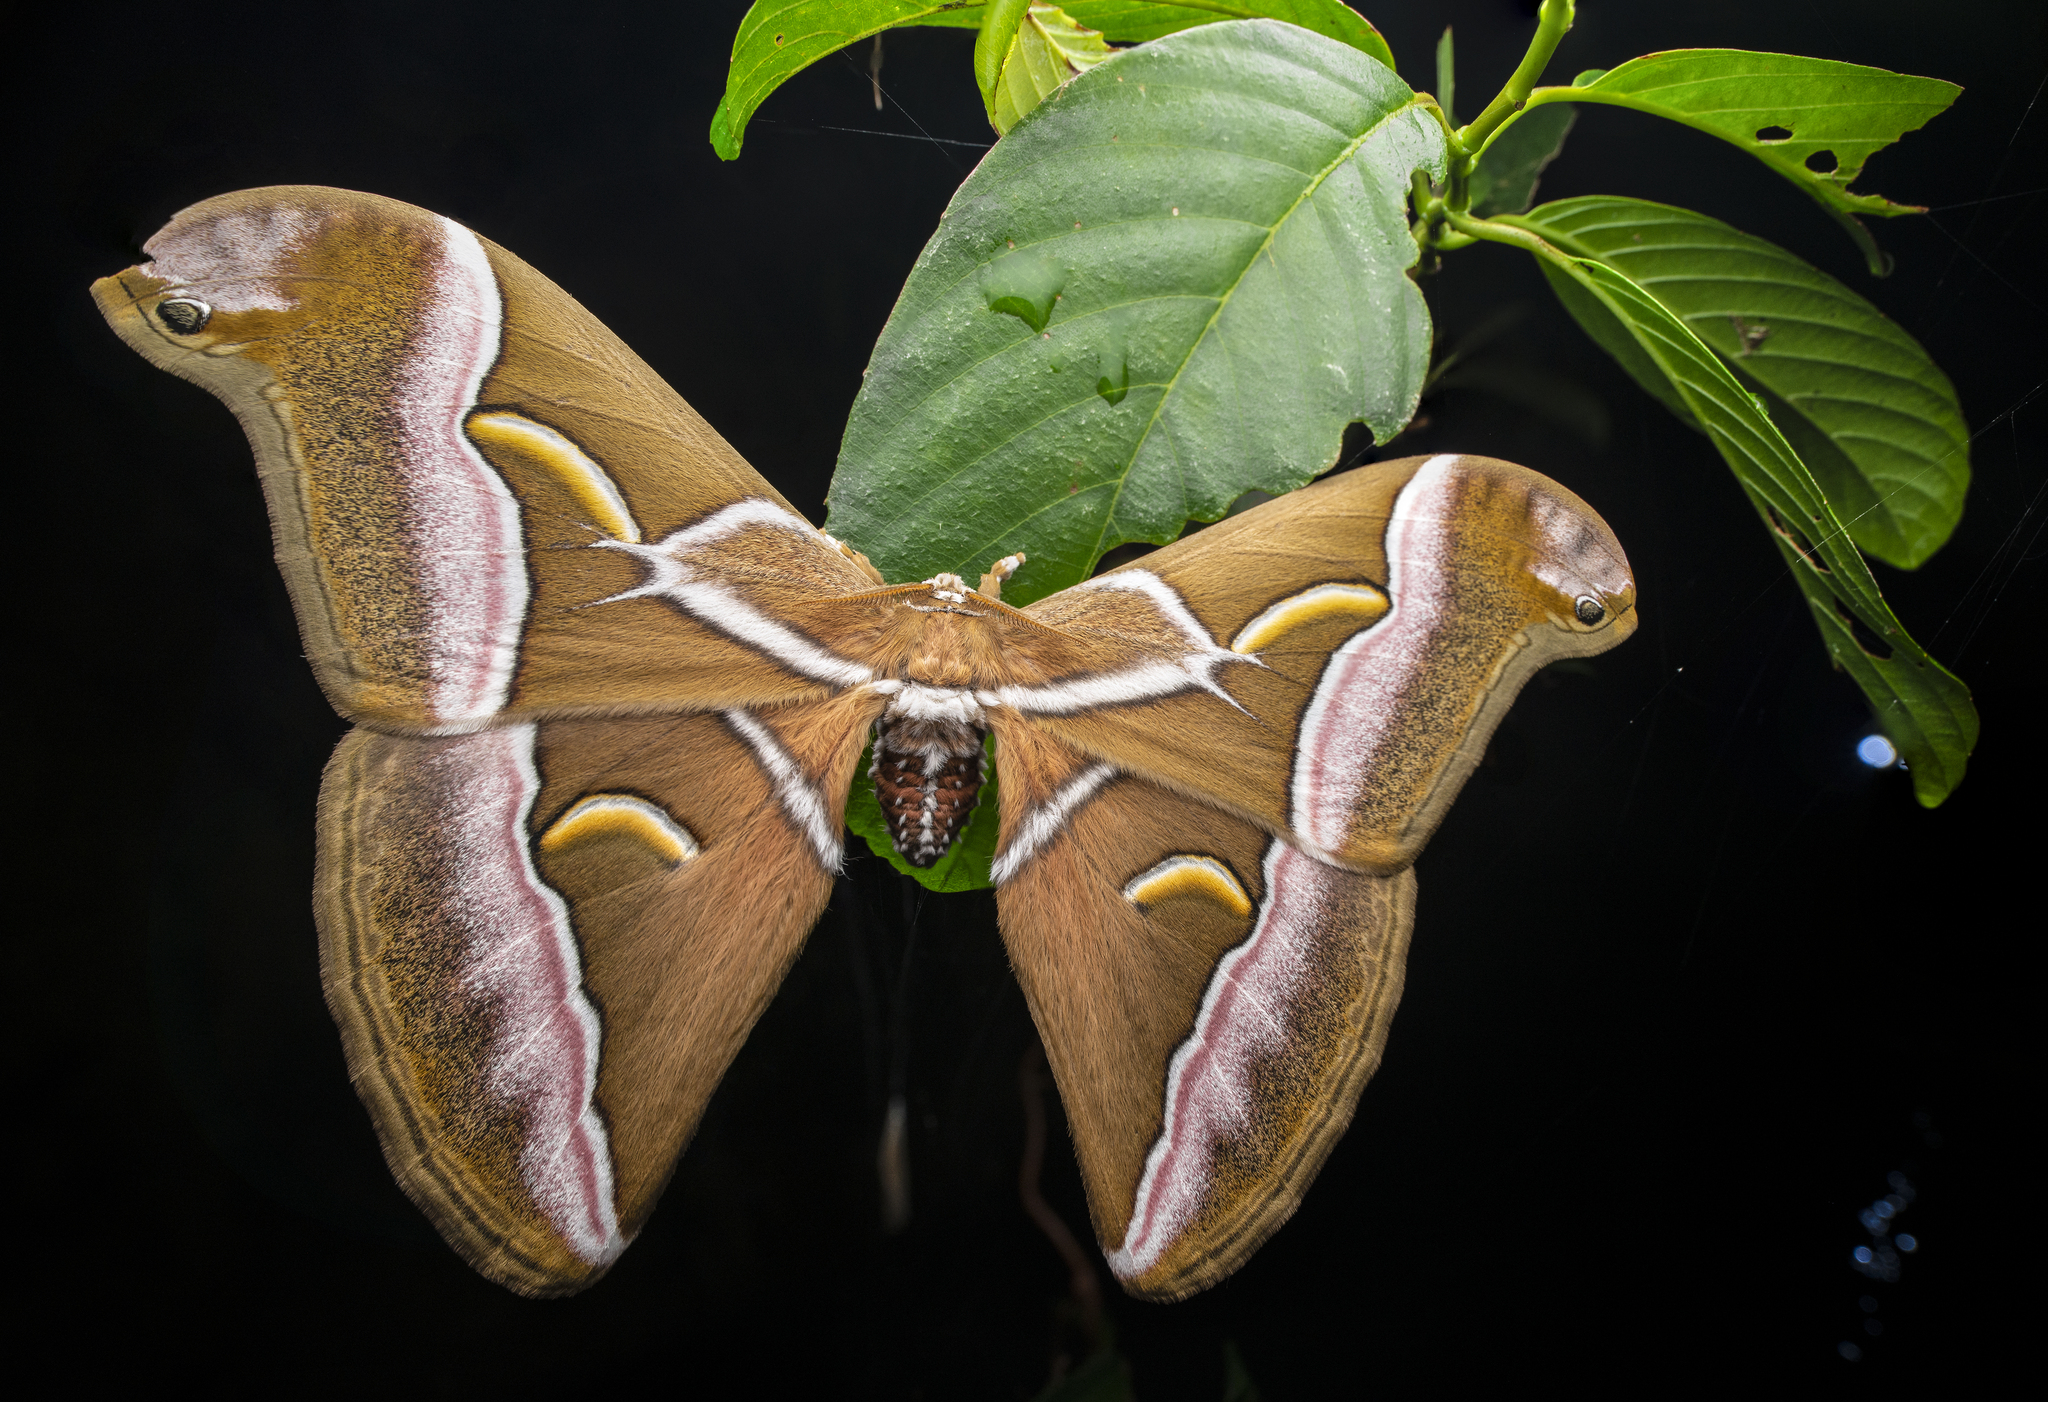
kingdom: Animalia
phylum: Arthropoda
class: Insecta
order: Lepidoptera
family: Saturniidae
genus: Samia
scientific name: Samia wangi
